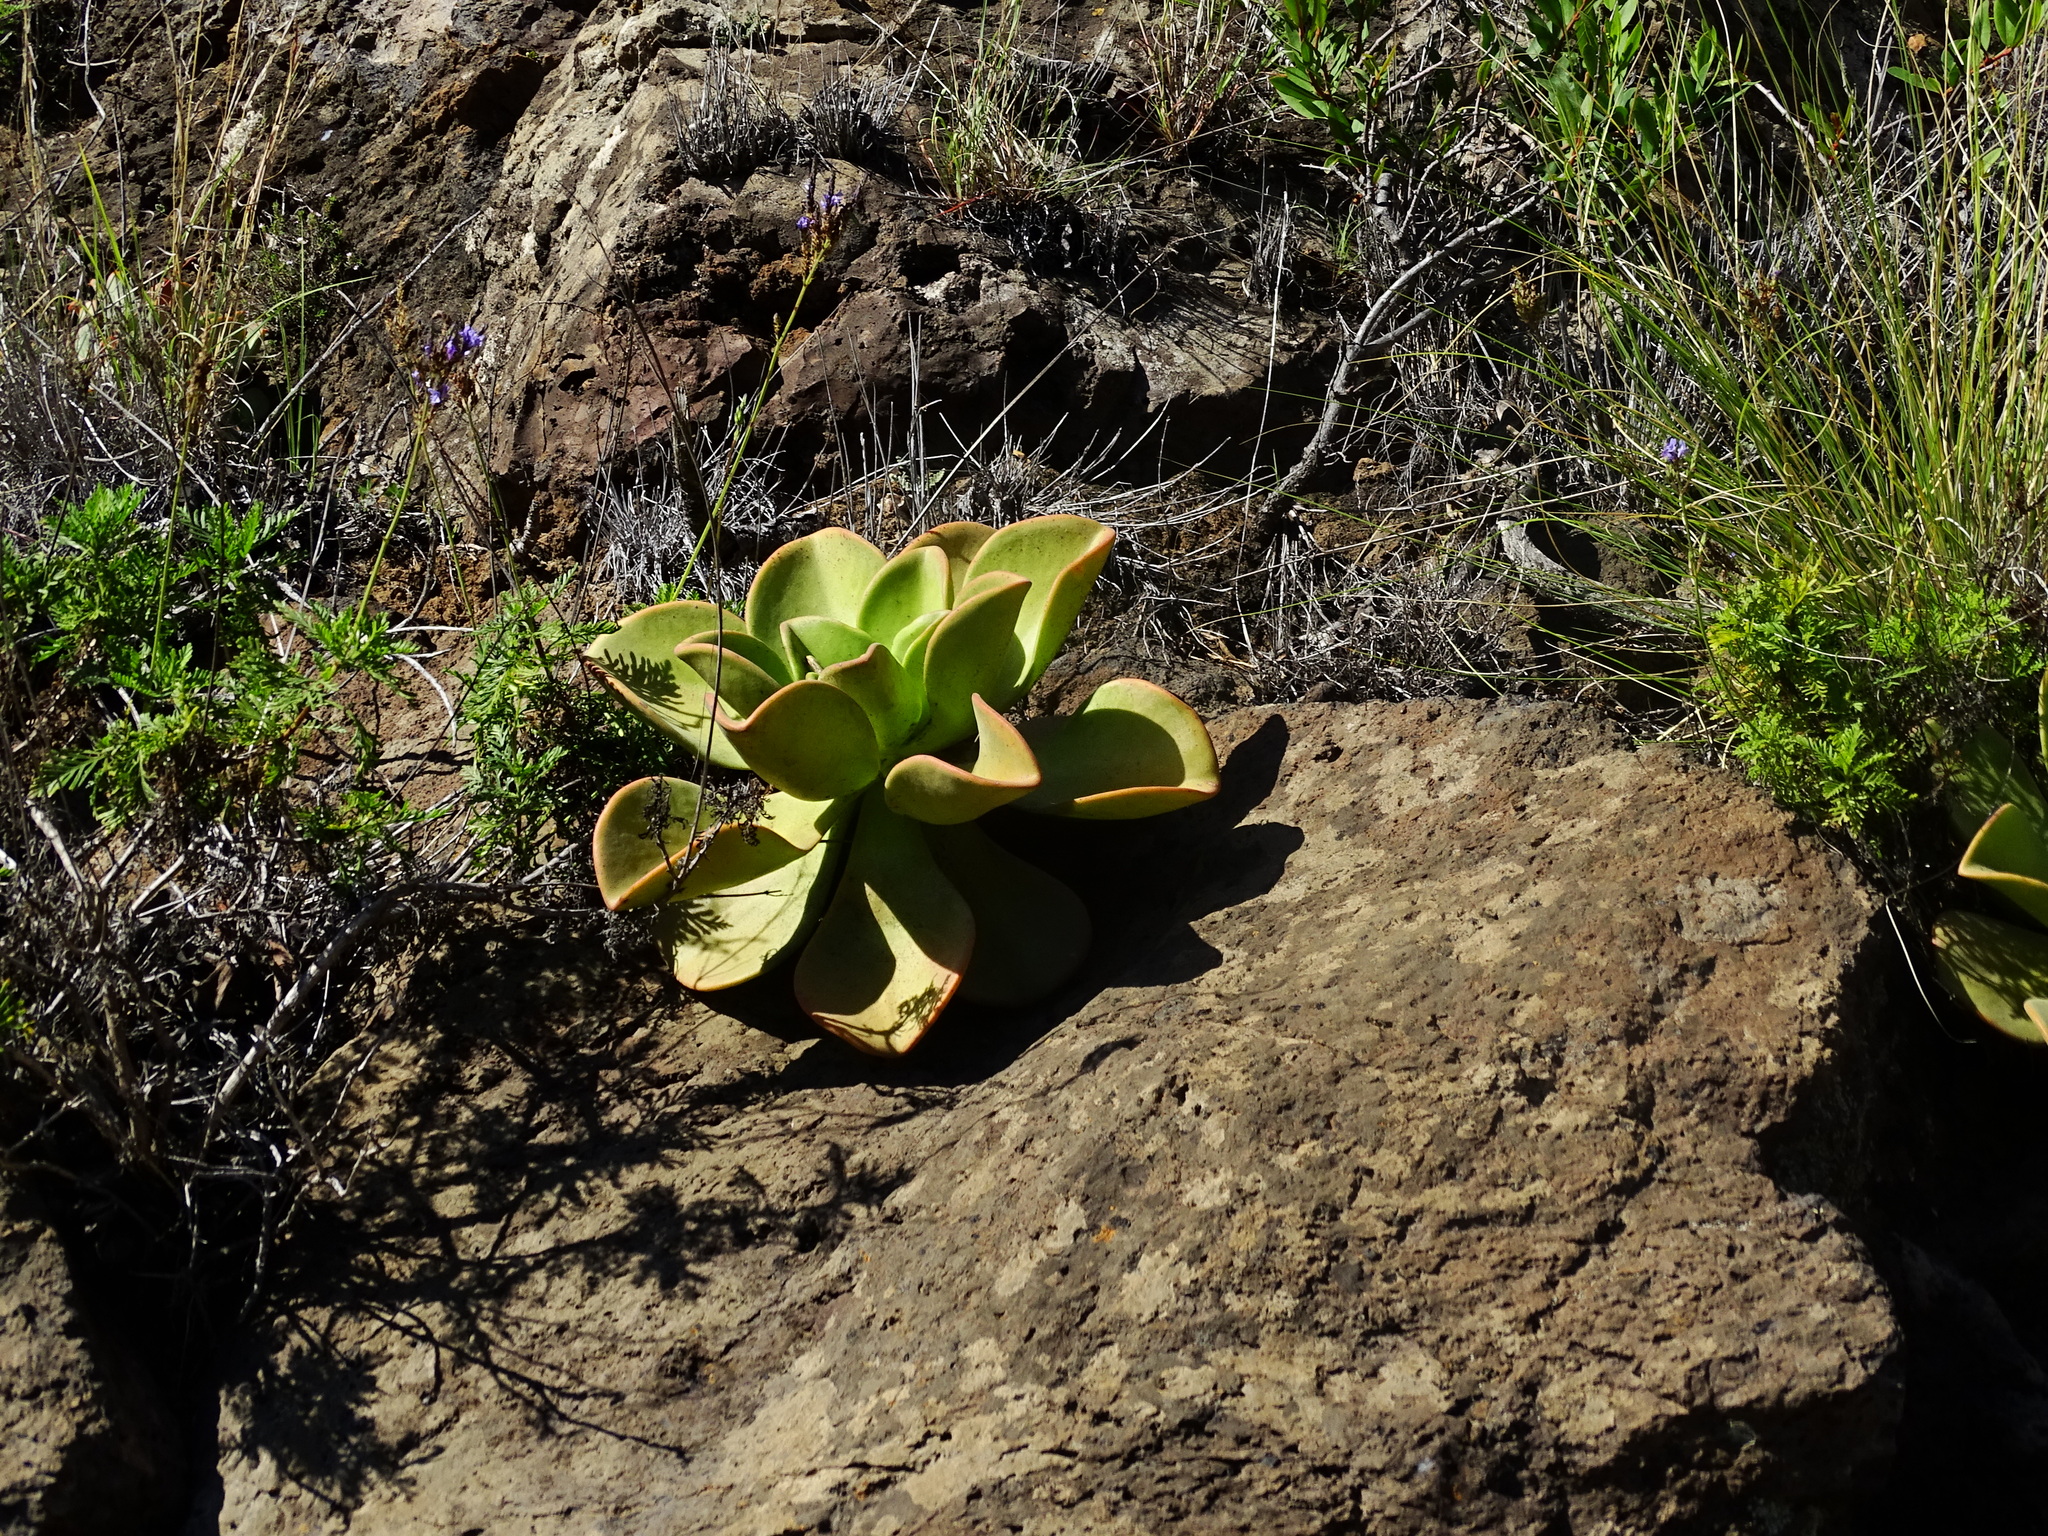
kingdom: Plantae
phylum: Tracheophyta
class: Magnoliopsida
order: Saxifragales
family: Crassulaceae
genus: Aeonium
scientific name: Aeonium nobile
